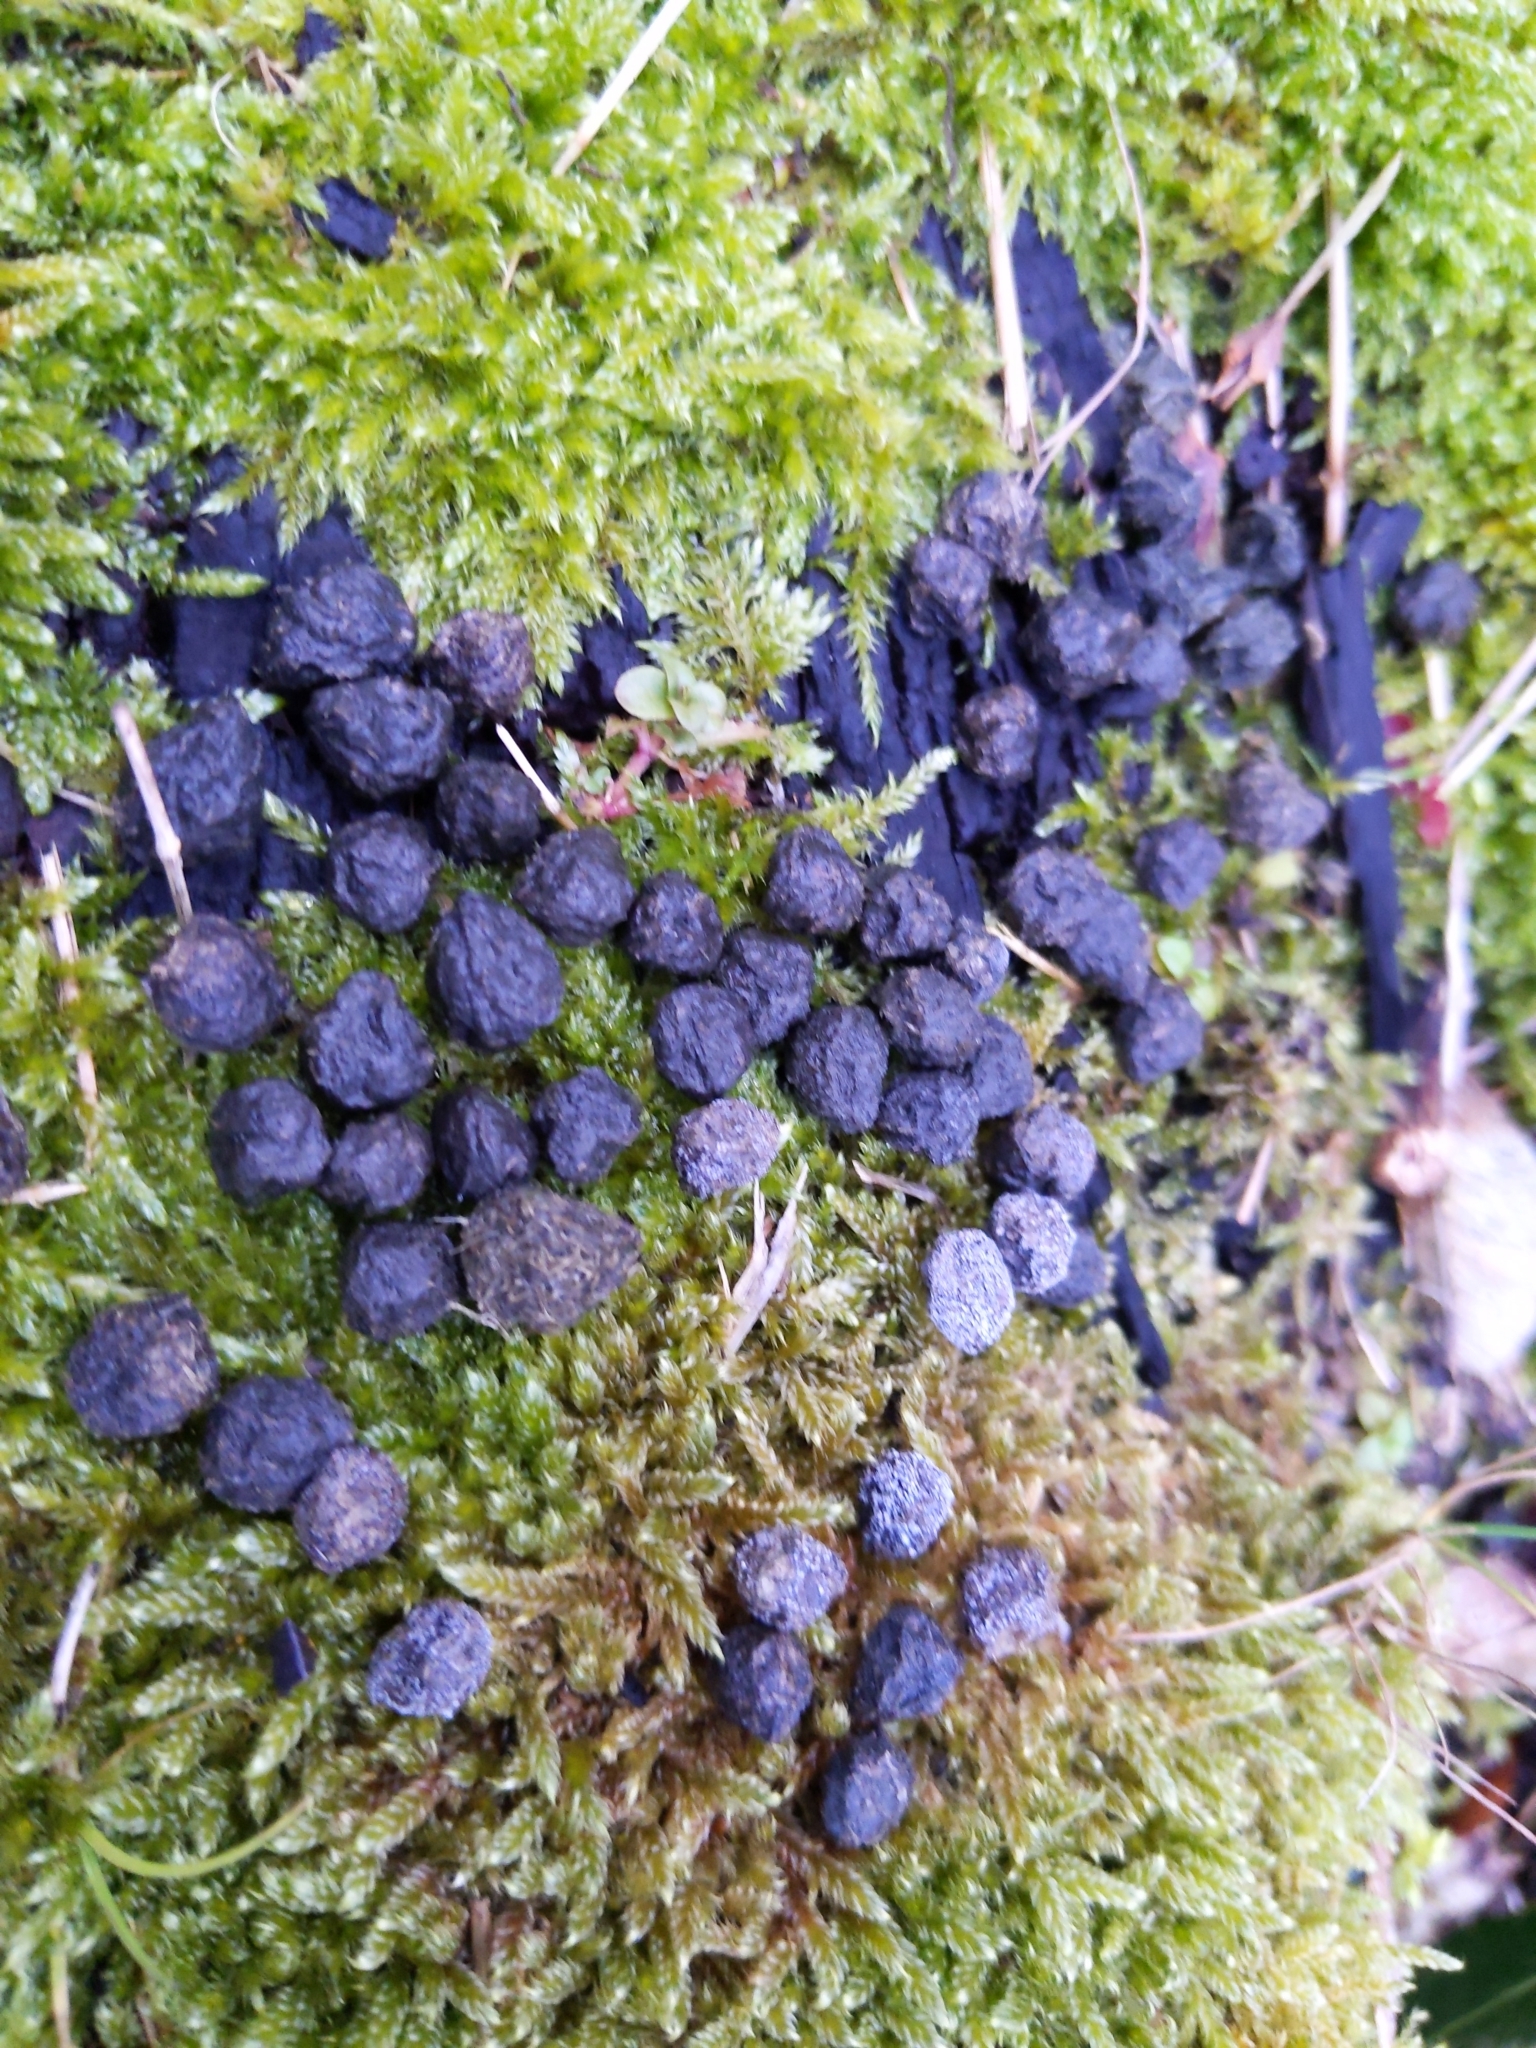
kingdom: Animalia
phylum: Chordata
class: Mammalia
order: Lagomorpha
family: Leporidae
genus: Oryctolagus
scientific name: Oryctolagus cuniculus
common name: European rabbit
